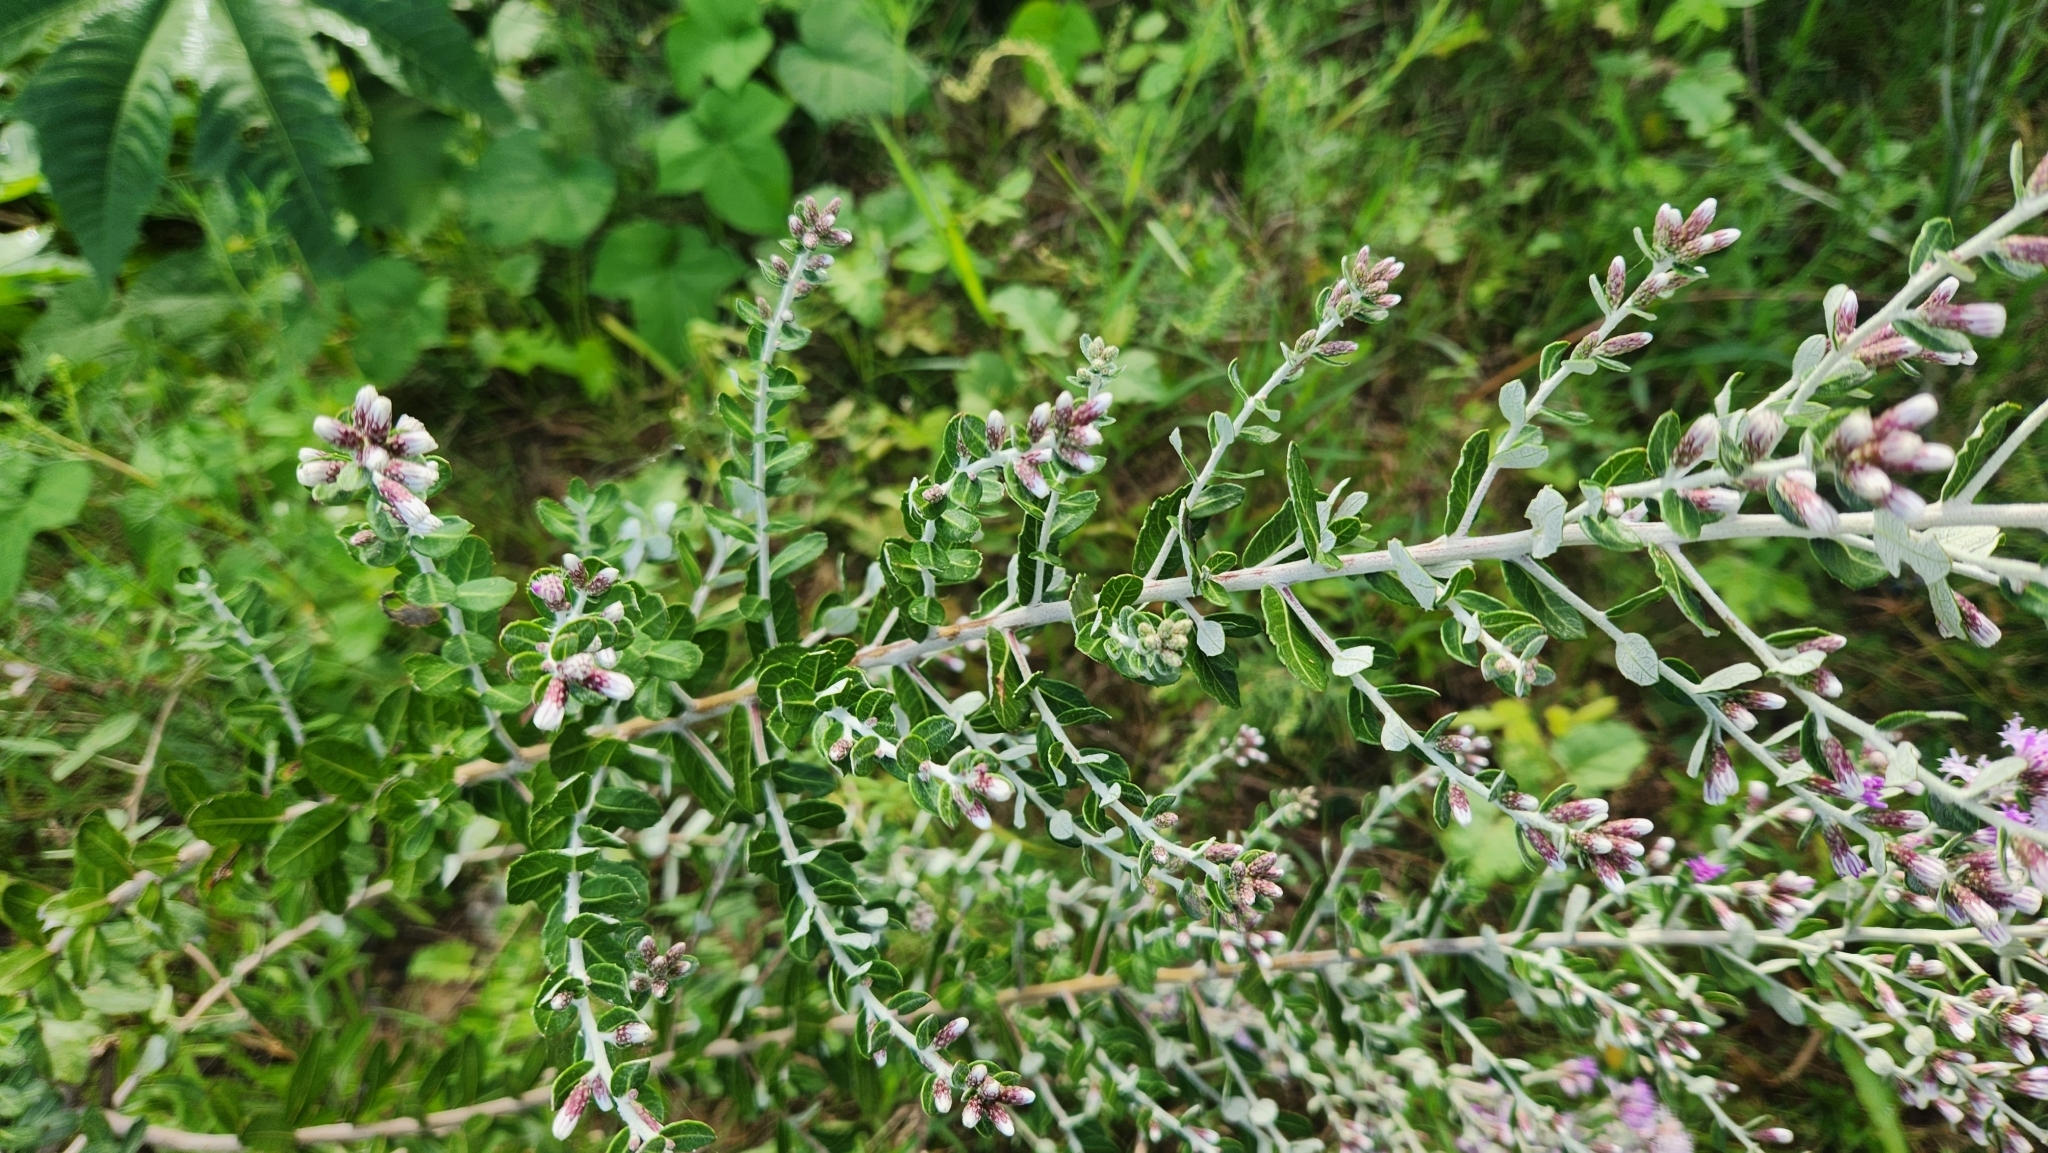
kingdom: Plantae
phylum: Tracheophyta
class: Magnoliopsida
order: Asterales
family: Asteraceae
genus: Vernonanthura
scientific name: Vernonanthura chamaedrys
